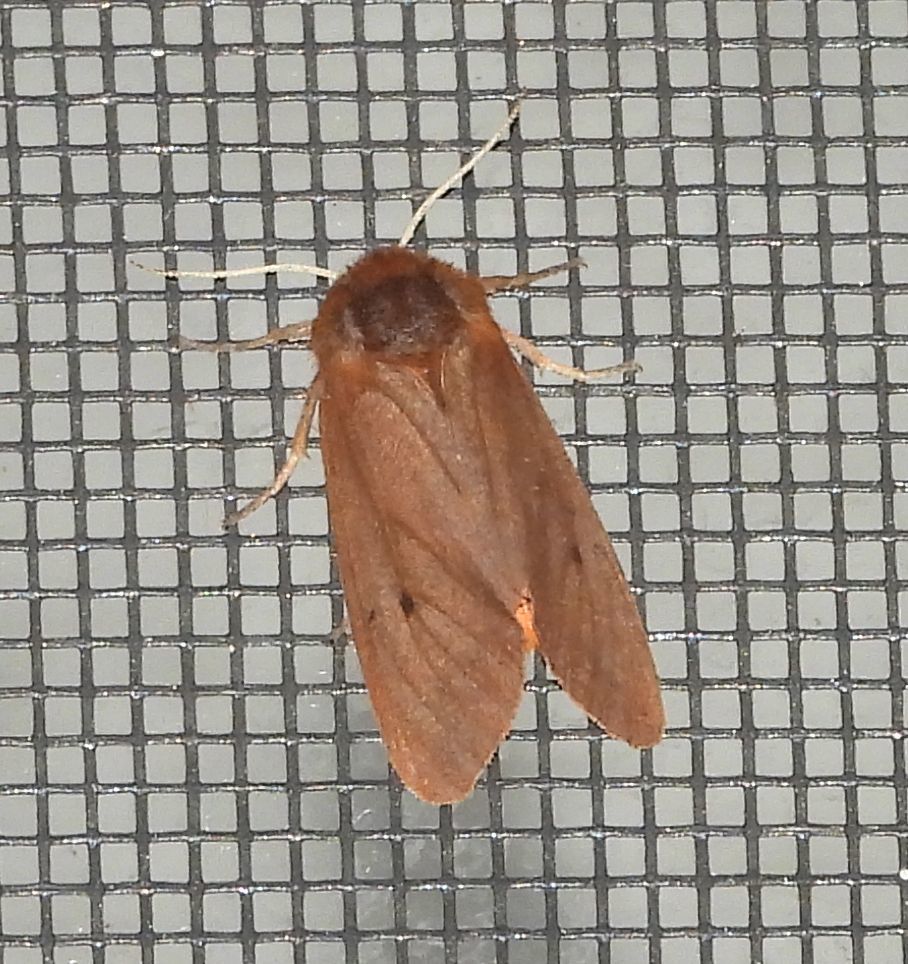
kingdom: Animalia
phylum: Arthropoda
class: Insecta
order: Lepidoptera
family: Erebidae
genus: Phragmatobia
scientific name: Phragmatobia fuliginosa
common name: Ruby tiger
